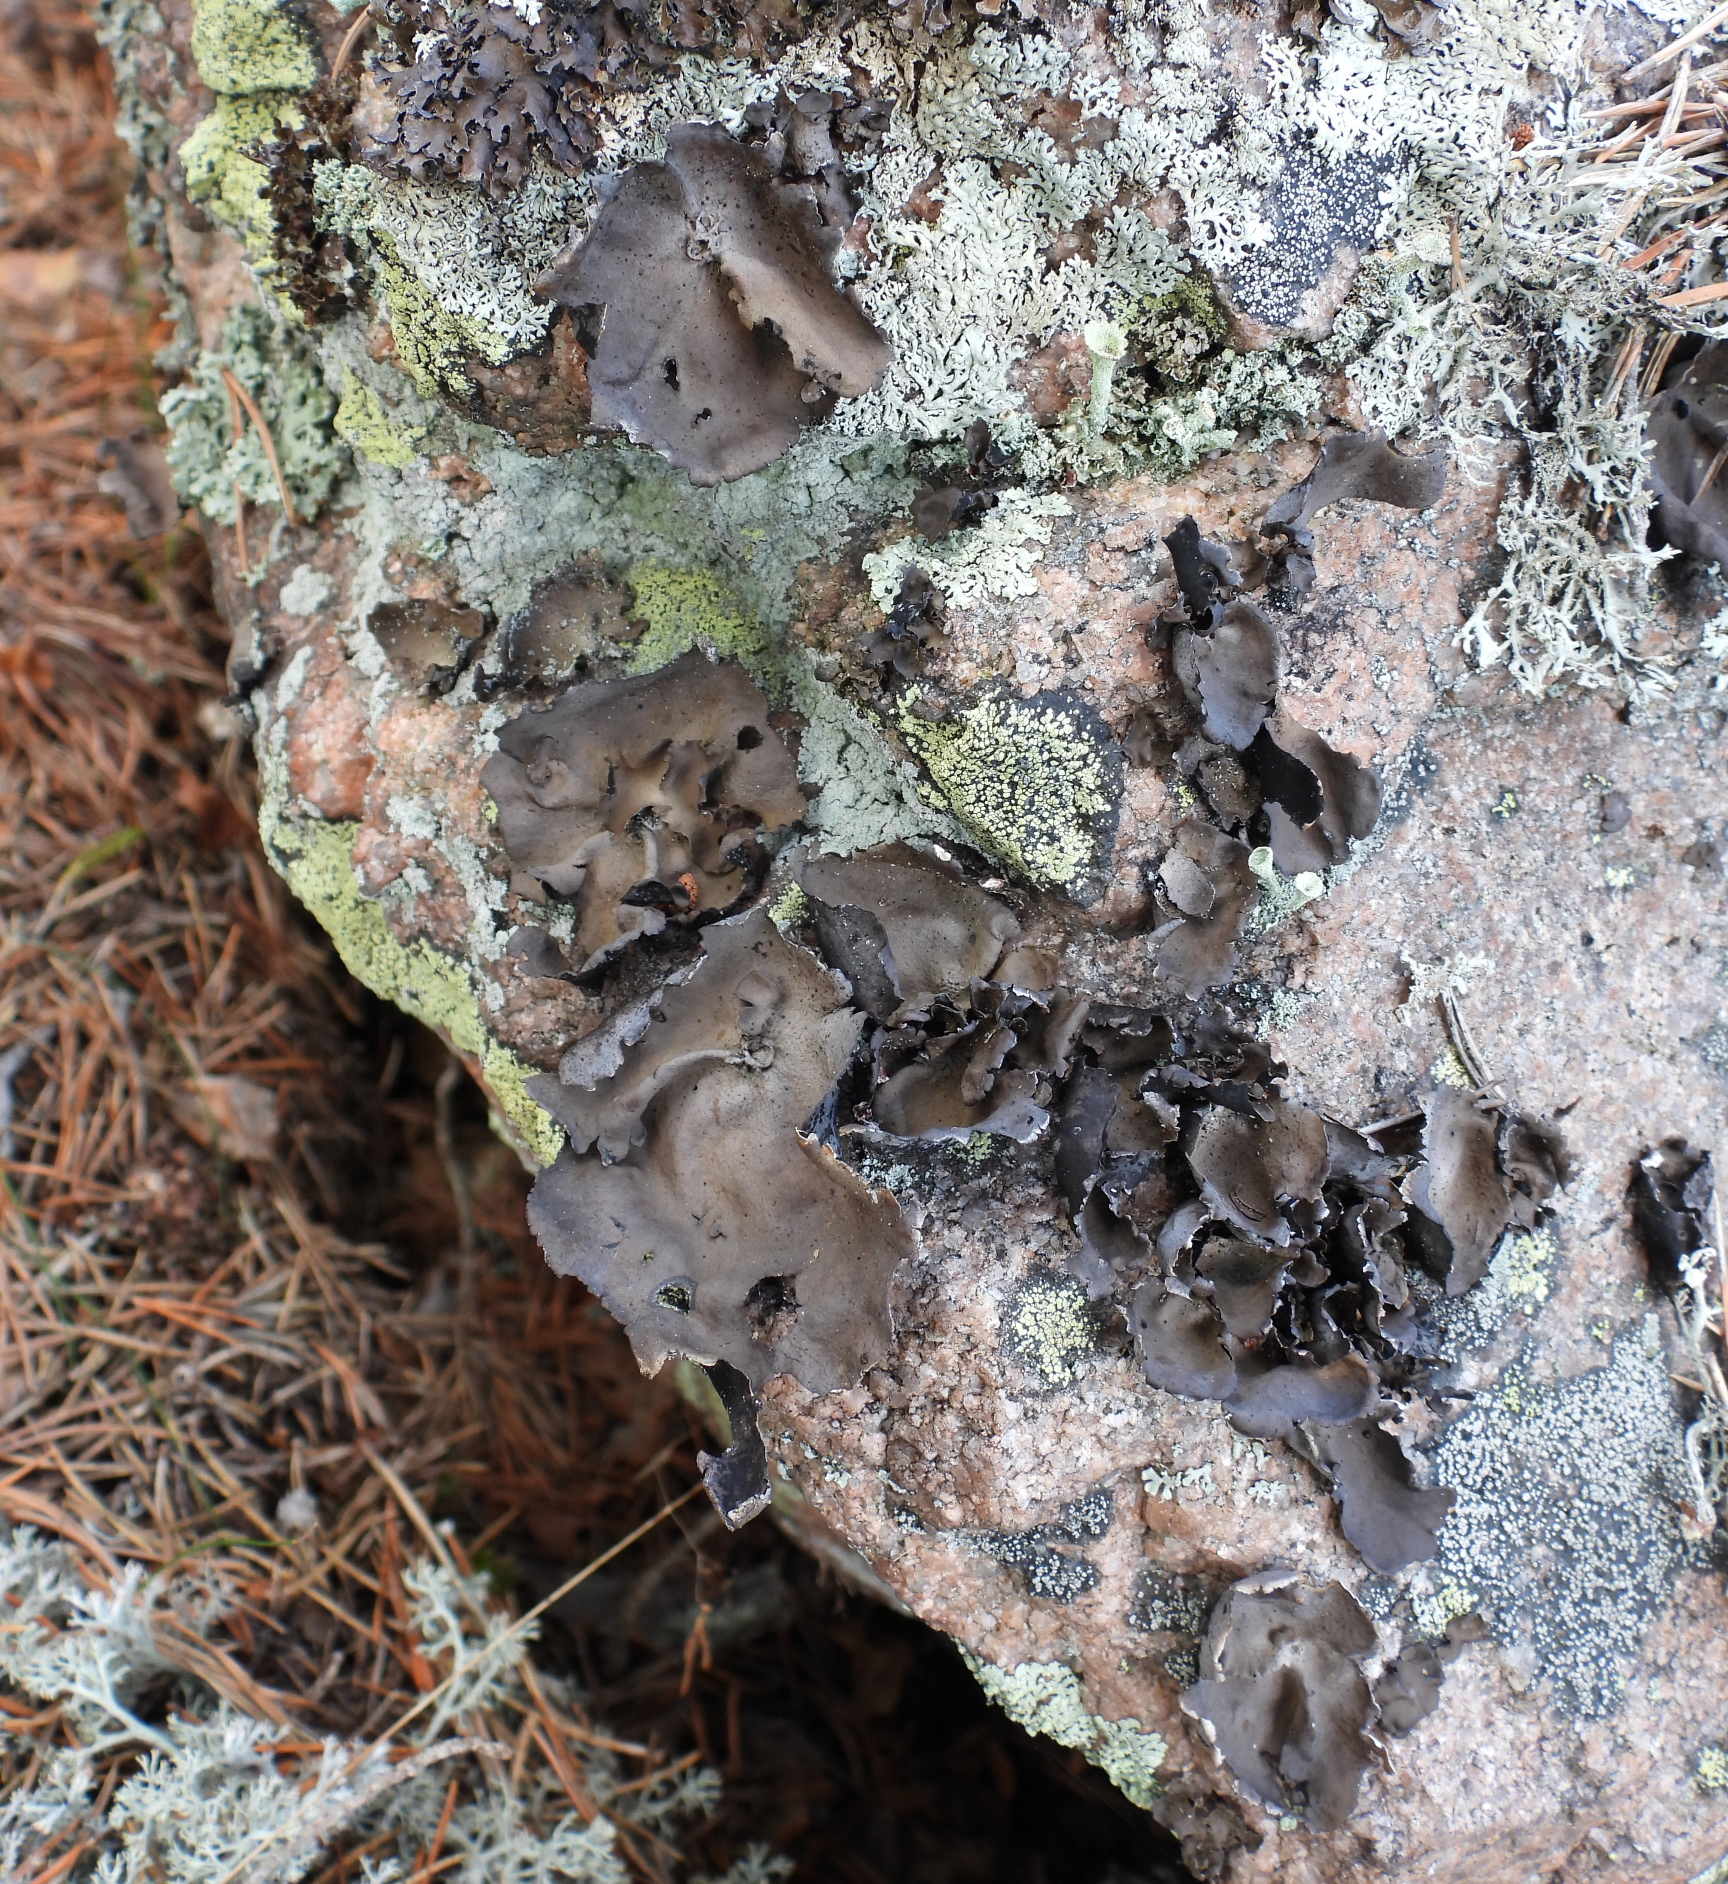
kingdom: Fungi
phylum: Ascomycota
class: Lecanoromycetes
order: Umbilicariales
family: Umbilicariaceae
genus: Umbilicaria
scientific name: Umbilicaria polyphylla
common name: Petalled rocktripe lichen
